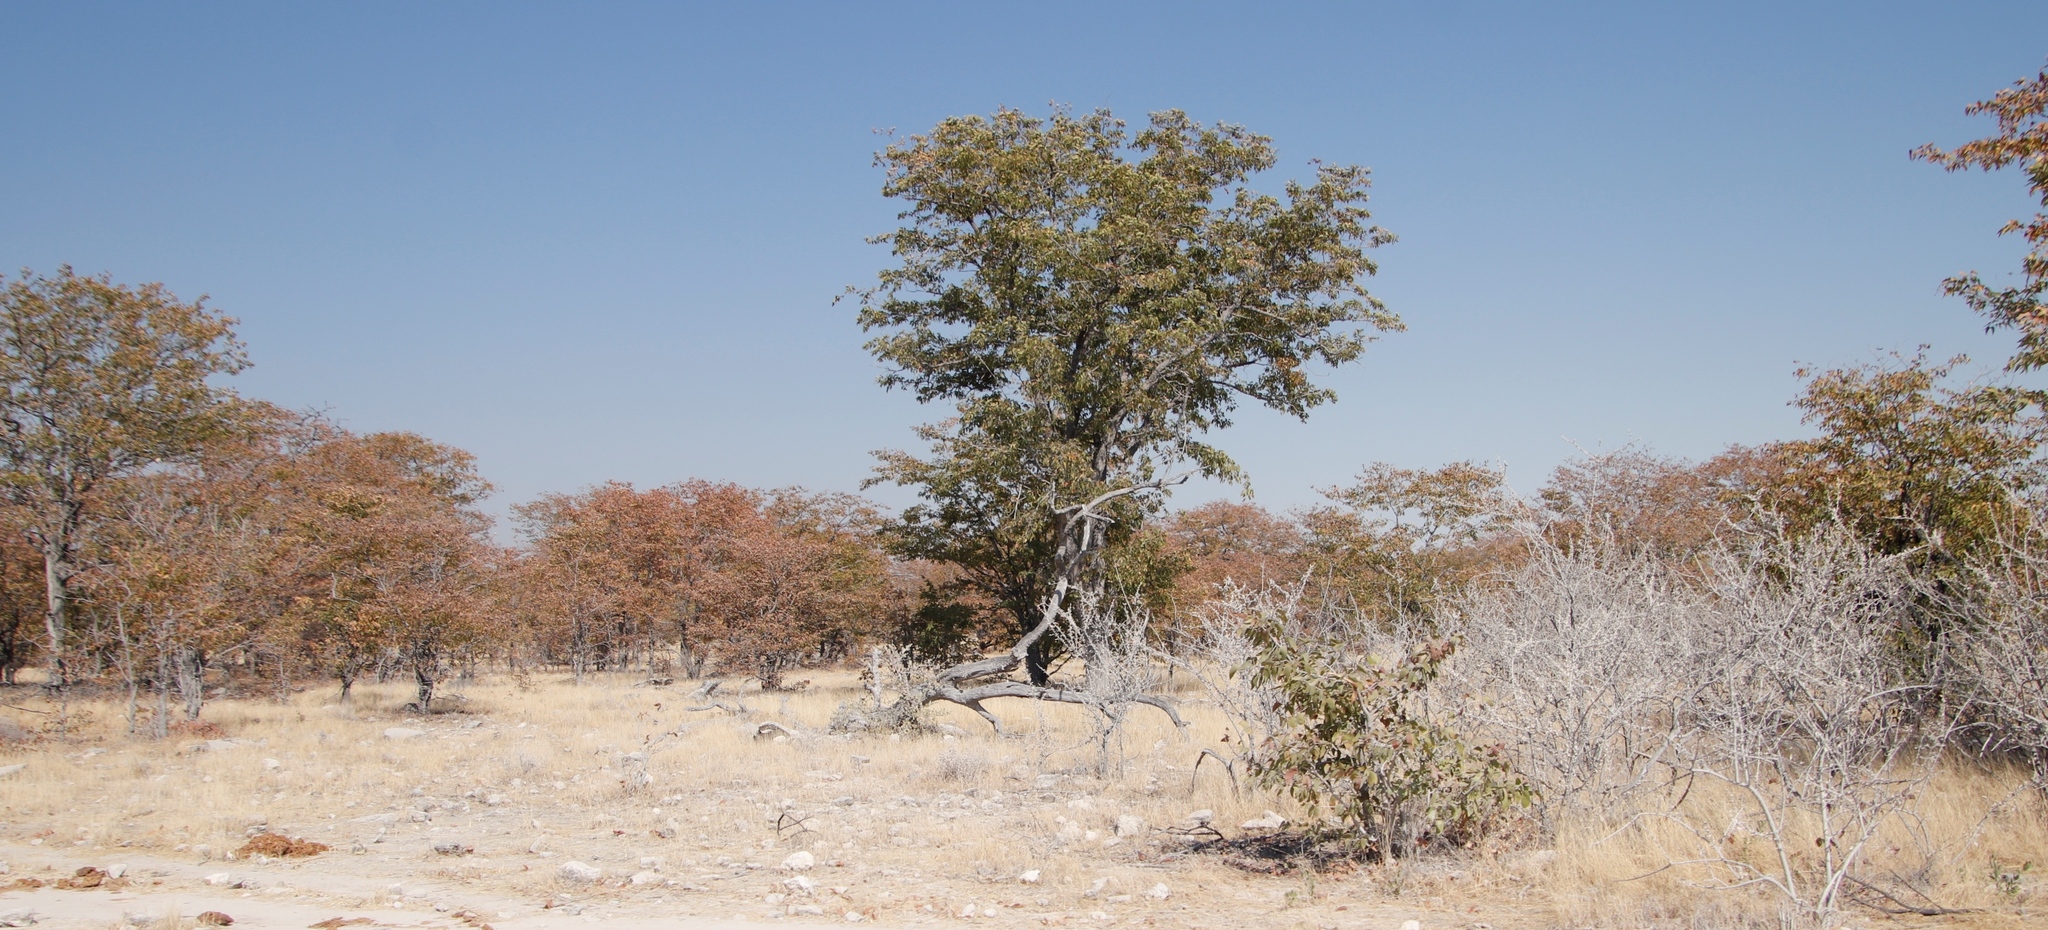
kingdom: Plantae
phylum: Tracheophyta
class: Magnoliopsida
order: Fabales
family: Fabaceae
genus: Colophospermum
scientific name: Colophospermum mopane
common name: Mopane
